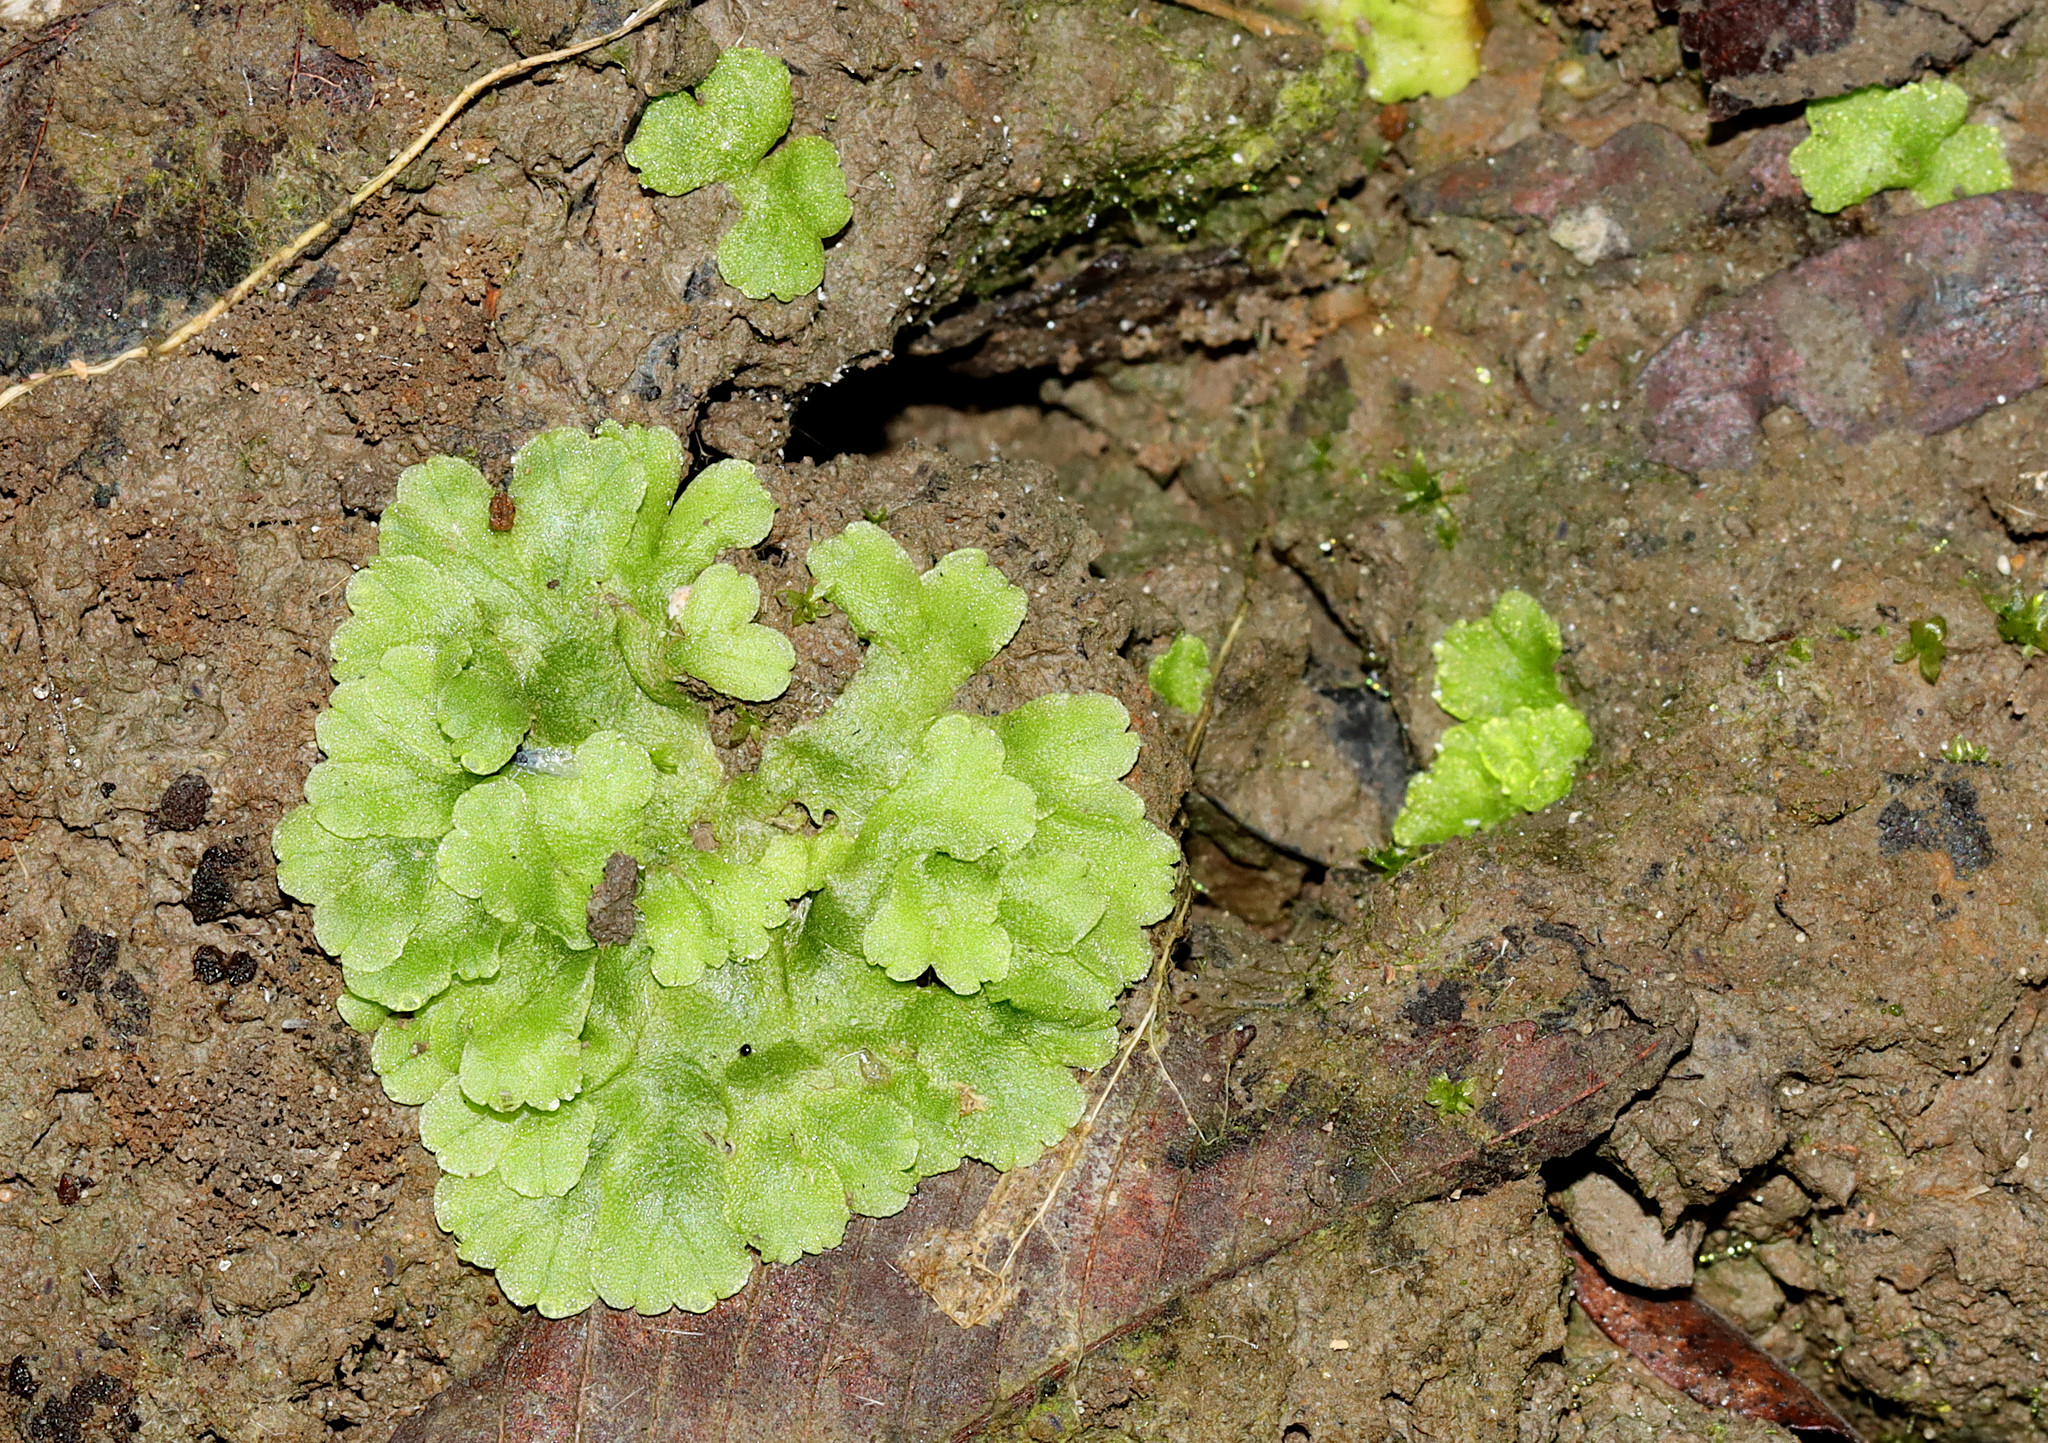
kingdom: Plantae
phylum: Marchantiophyta
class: Marchantiopsida
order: Marchantiales
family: Ricciaceae
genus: Ricciocarpos
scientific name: Ricciocarpos natans
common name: Purple-fringed liverwort
